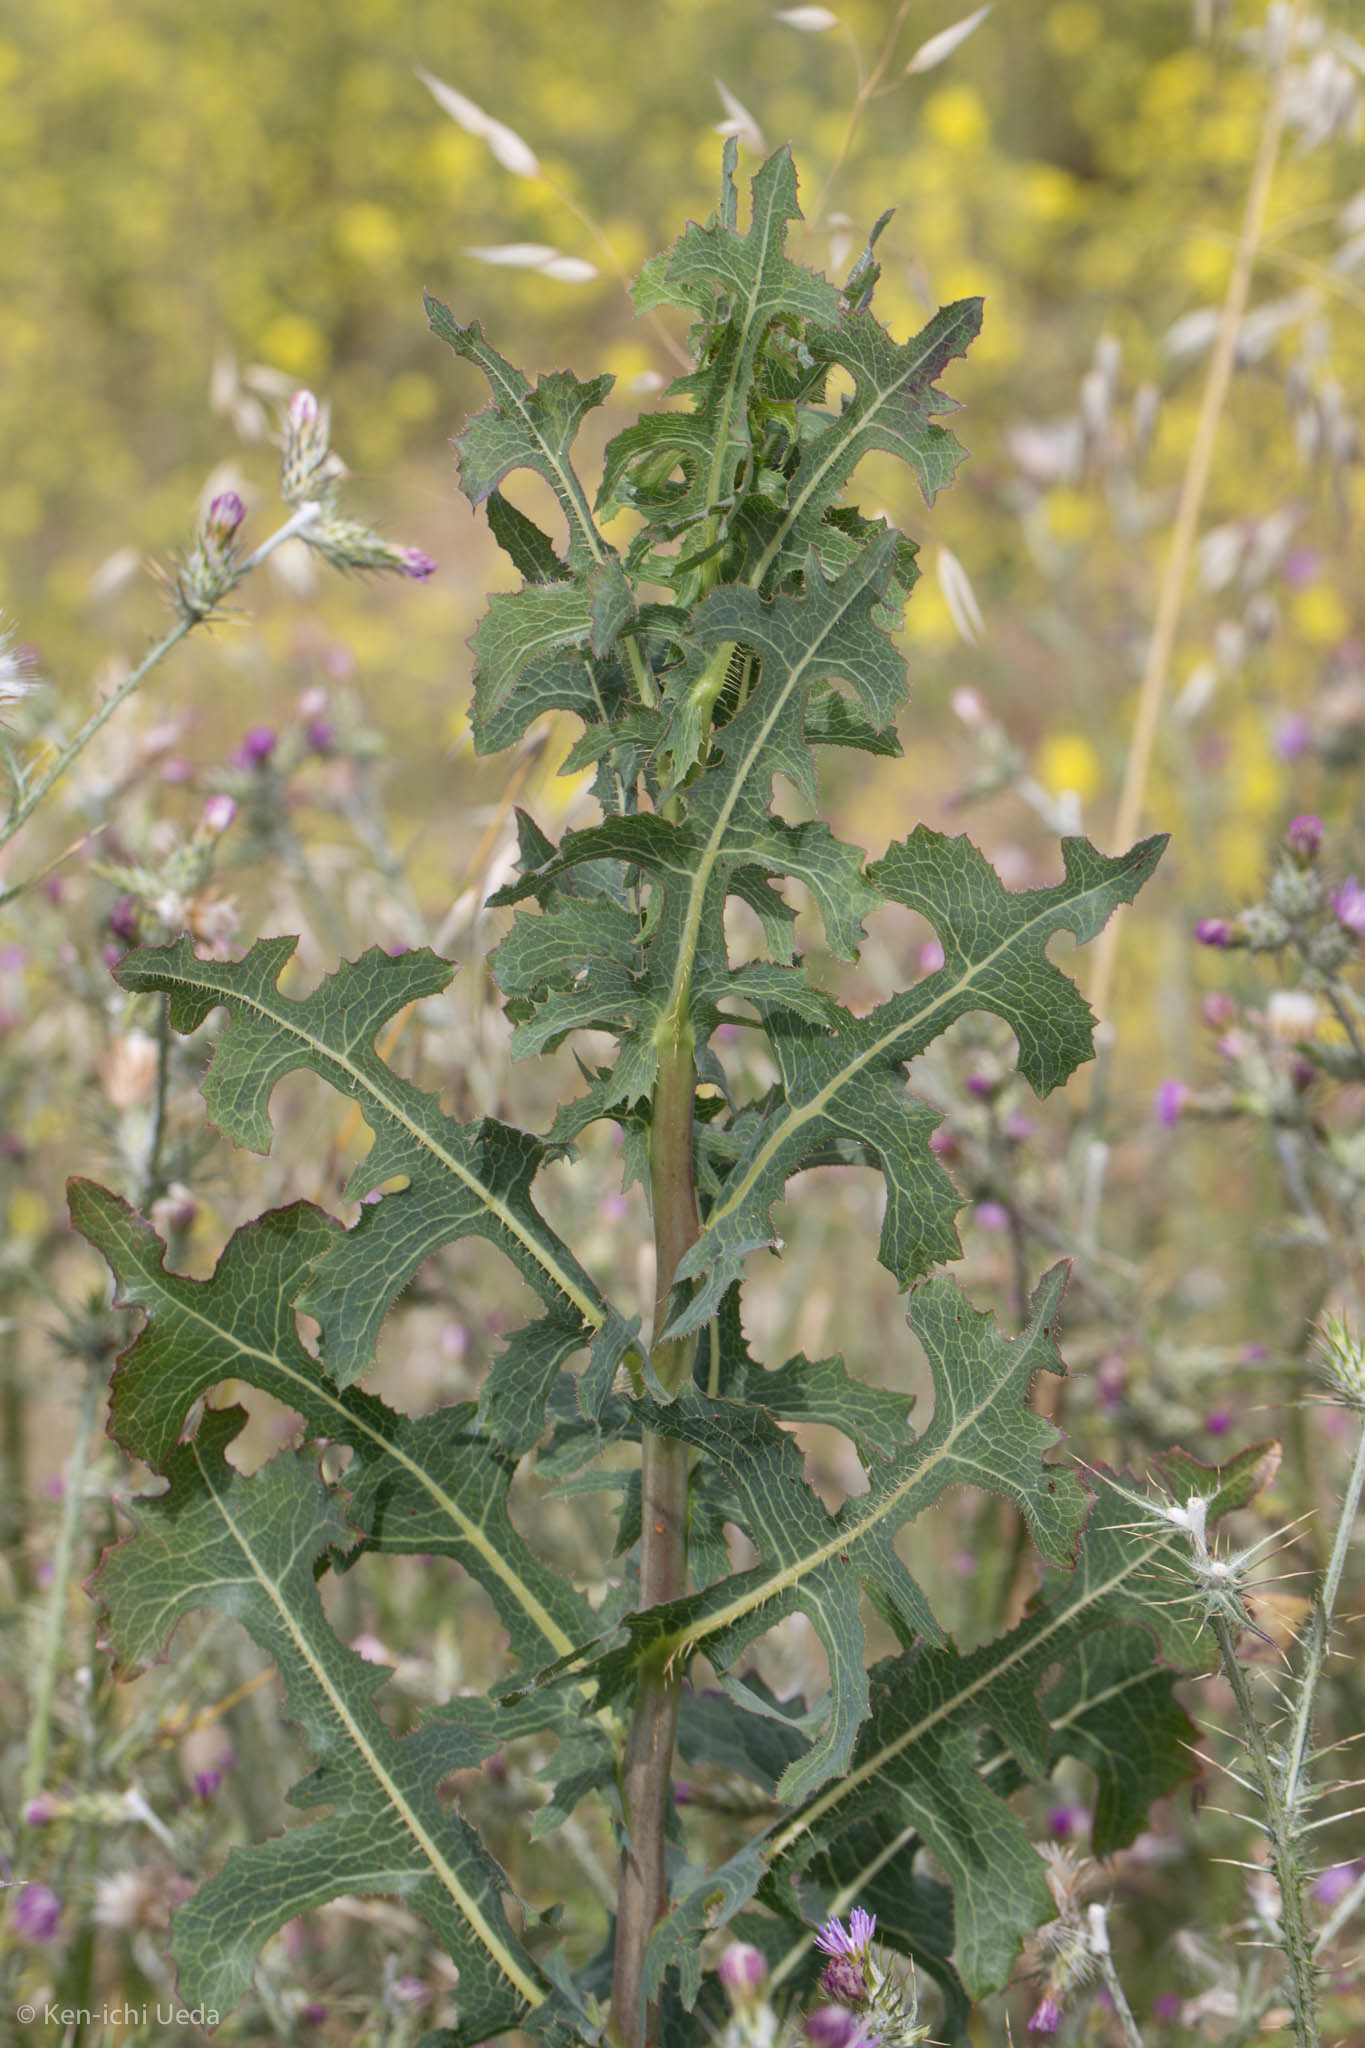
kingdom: Plantae
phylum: Tracheophyta
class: Magnoliopsida
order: Asterales
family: Asteraceae
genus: Lactuca
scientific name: Lactuca serriola
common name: Prickly lettuce
